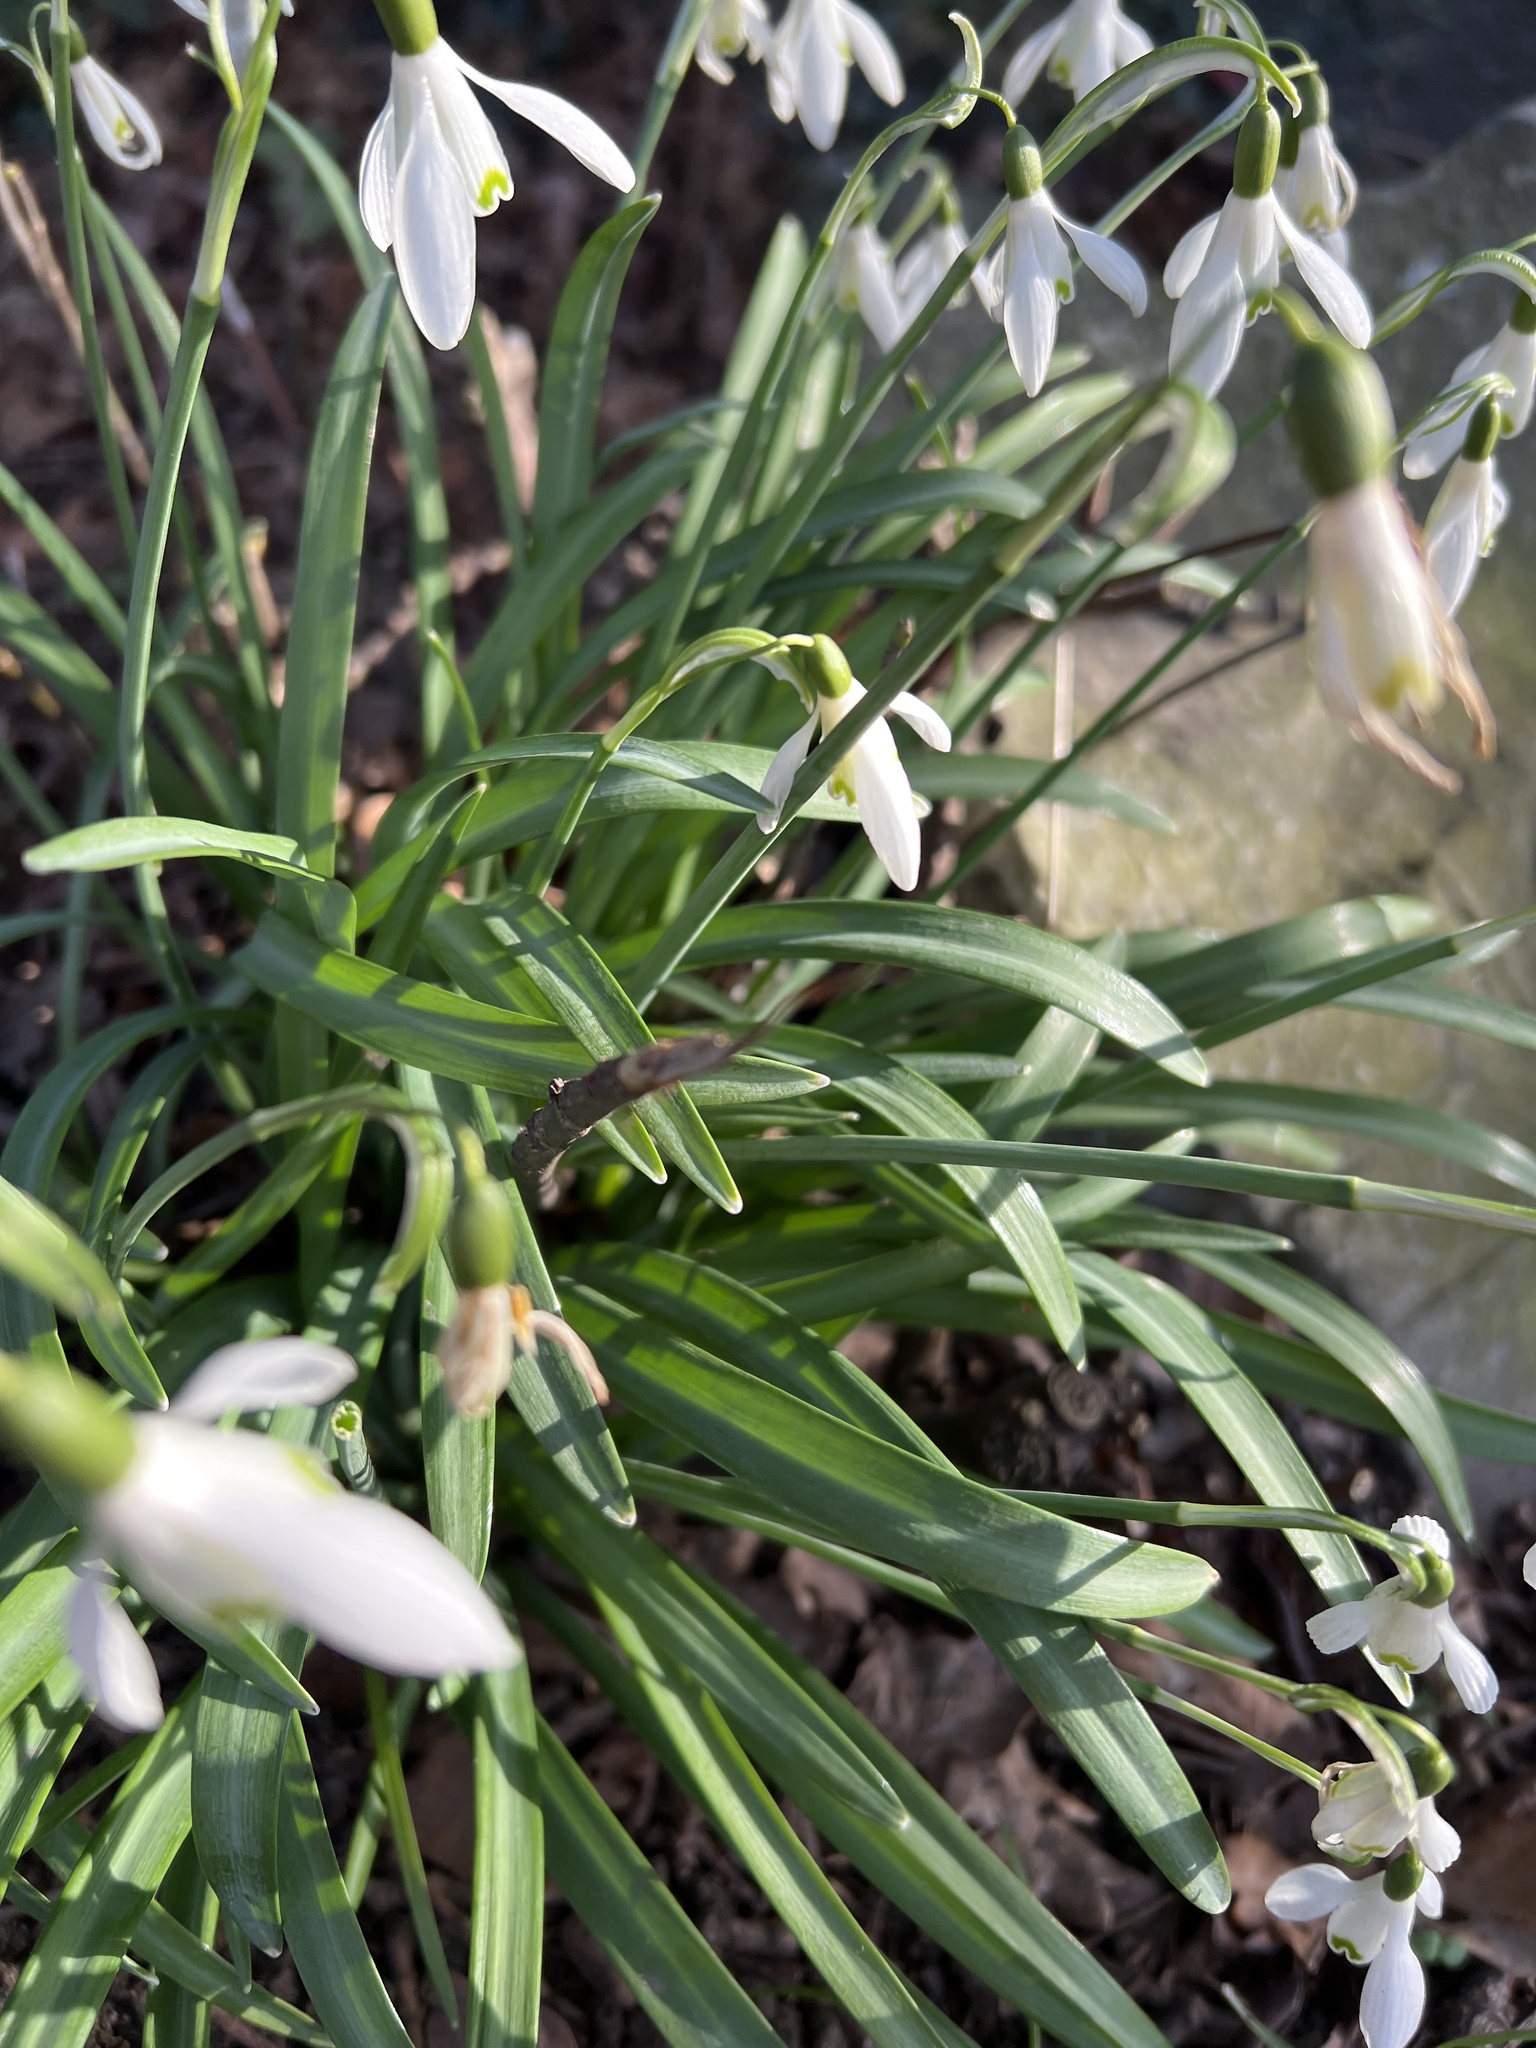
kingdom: Plantae
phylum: Tracheophyta
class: Liliopsida
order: Asparagales
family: Amaryllidaceae
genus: Galanthus
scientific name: Galanthus nivalis
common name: Snowdrop
